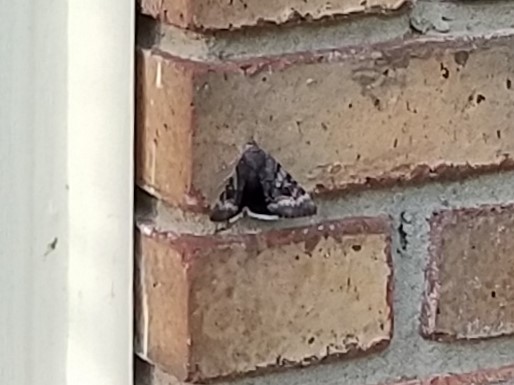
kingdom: Animalia
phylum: Arthropoda
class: Insecta
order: Lepidoptera
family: Erebidae
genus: Catocala
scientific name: Catocala epione
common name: Epione underwing
